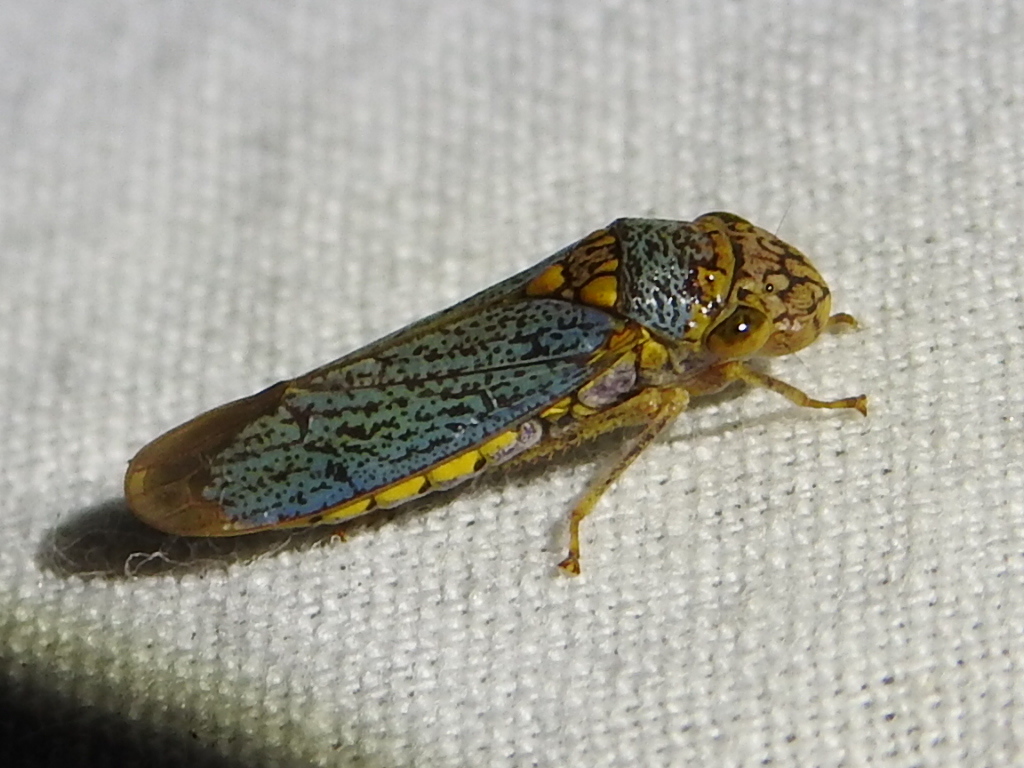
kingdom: Animalia
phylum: Arthropoda
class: Insecta
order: Hemiptera
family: Cicadellidae
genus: Oncometopia
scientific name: Oncometopia orbona
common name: Broad-headed sharpshooter
